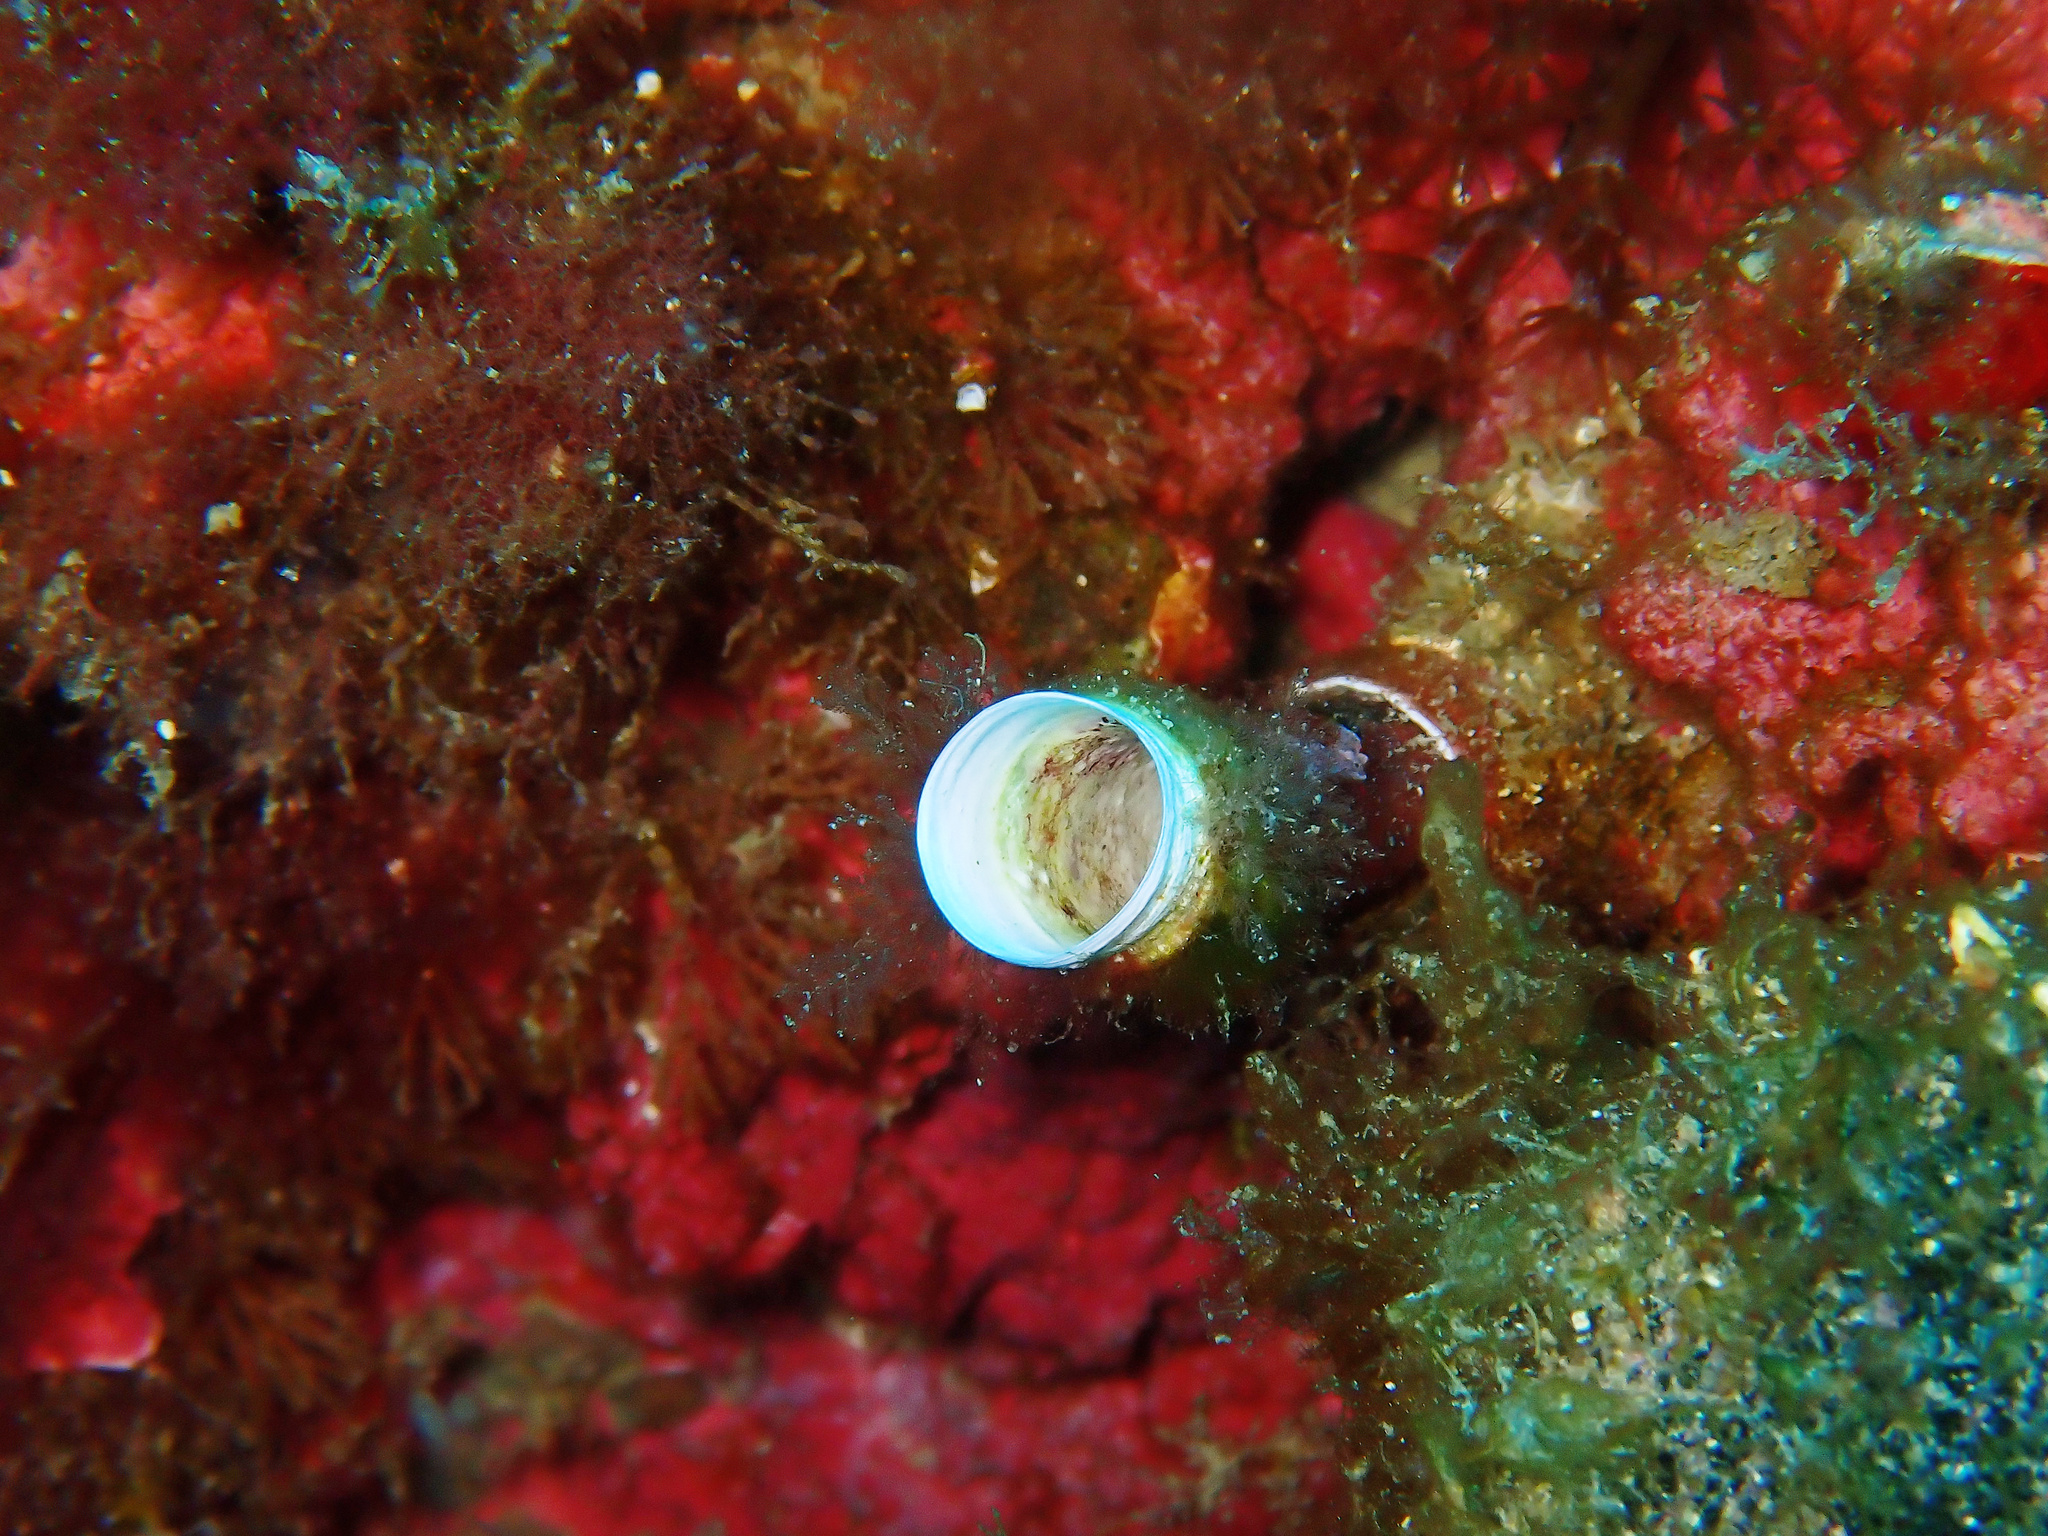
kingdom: Animalia
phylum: Annelida
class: Polychaeta
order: Sabellida
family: Serpulidae
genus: Protula
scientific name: Protula tubularia
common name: Red-spotted horseshoe
